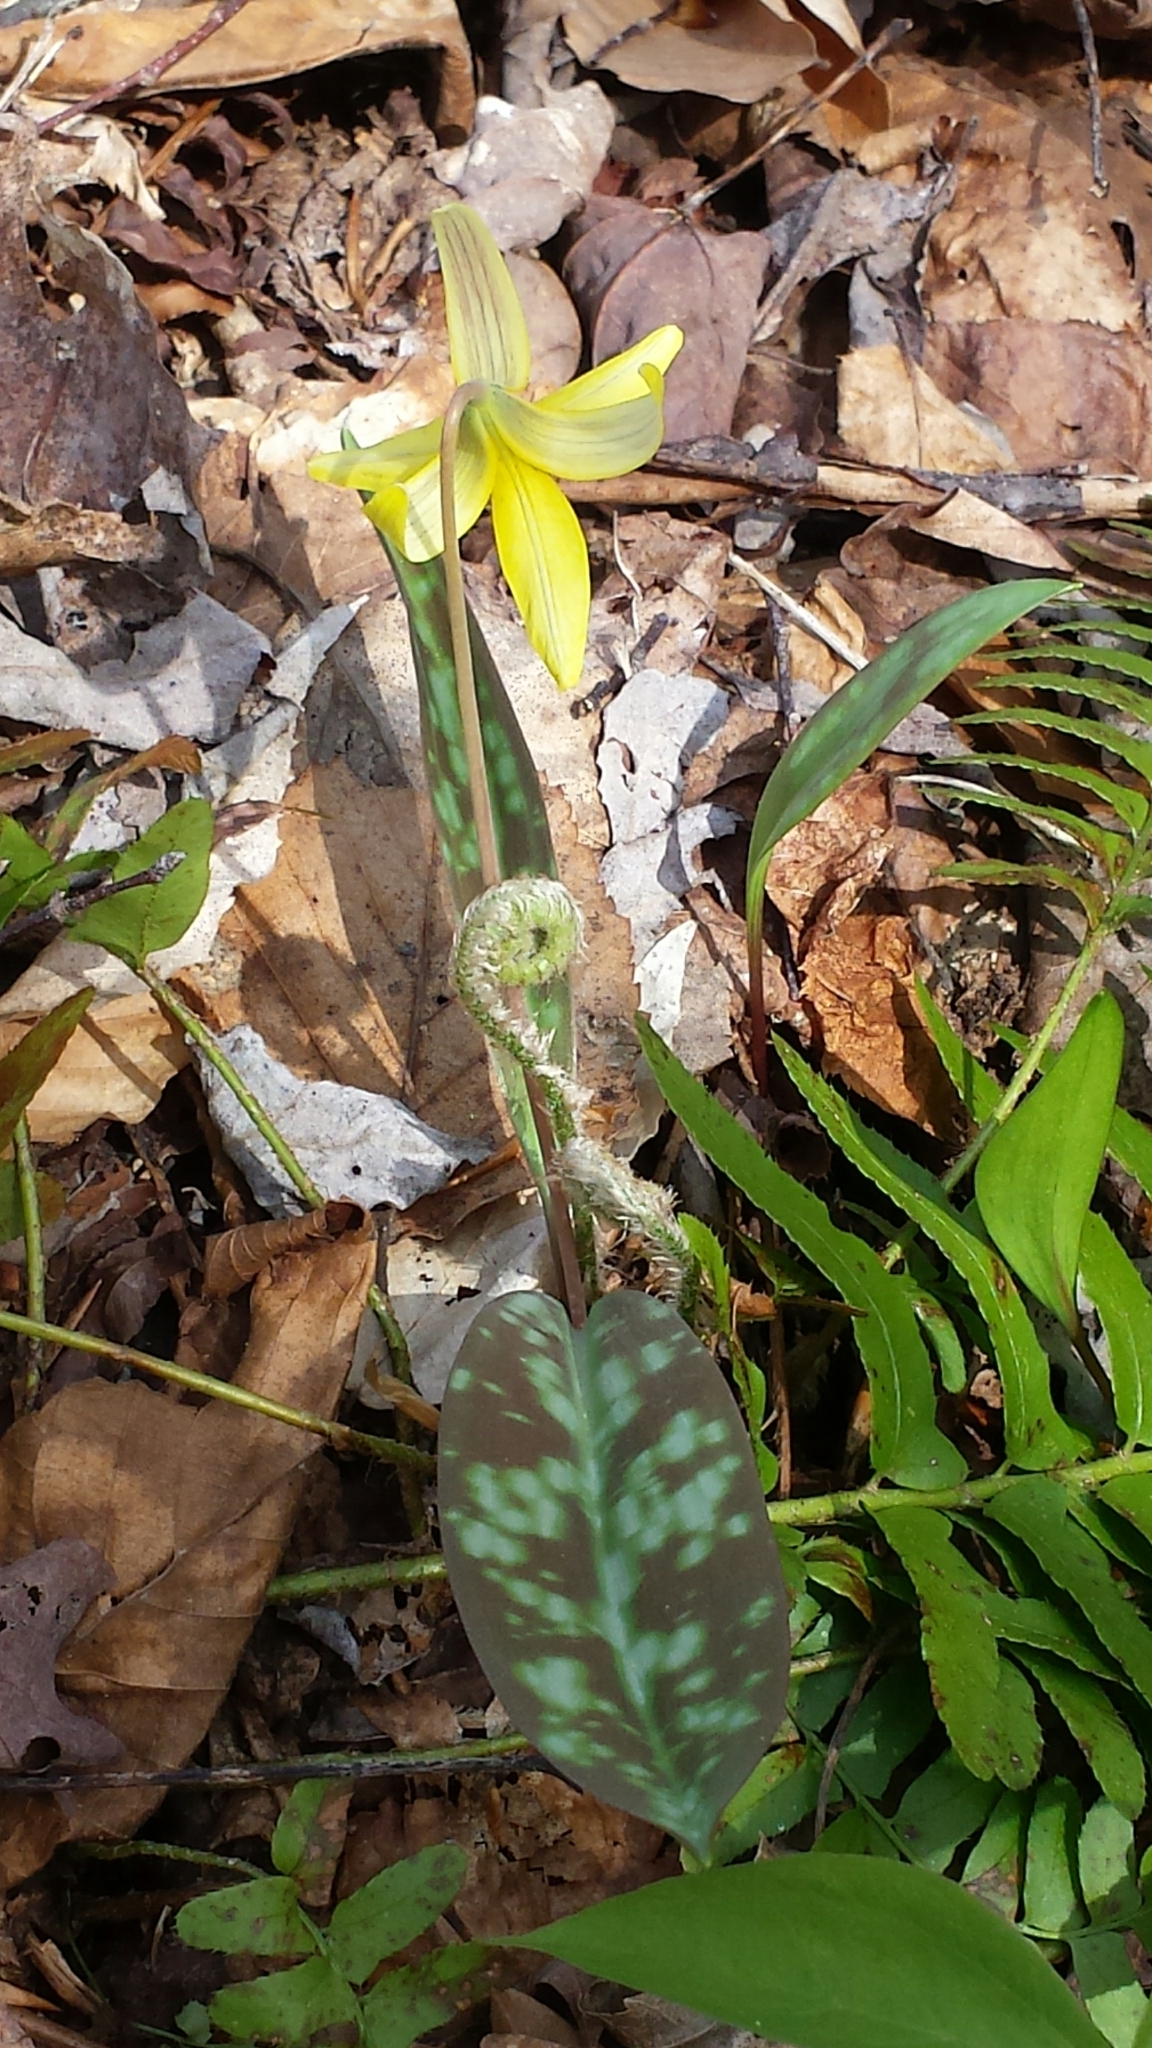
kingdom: Plantae
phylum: Tracheophyta
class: Liliopsida
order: Liliales
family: Liliaceae
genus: Erythronium
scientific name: Erythronium americanum
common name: Yellow adder's-tongue
